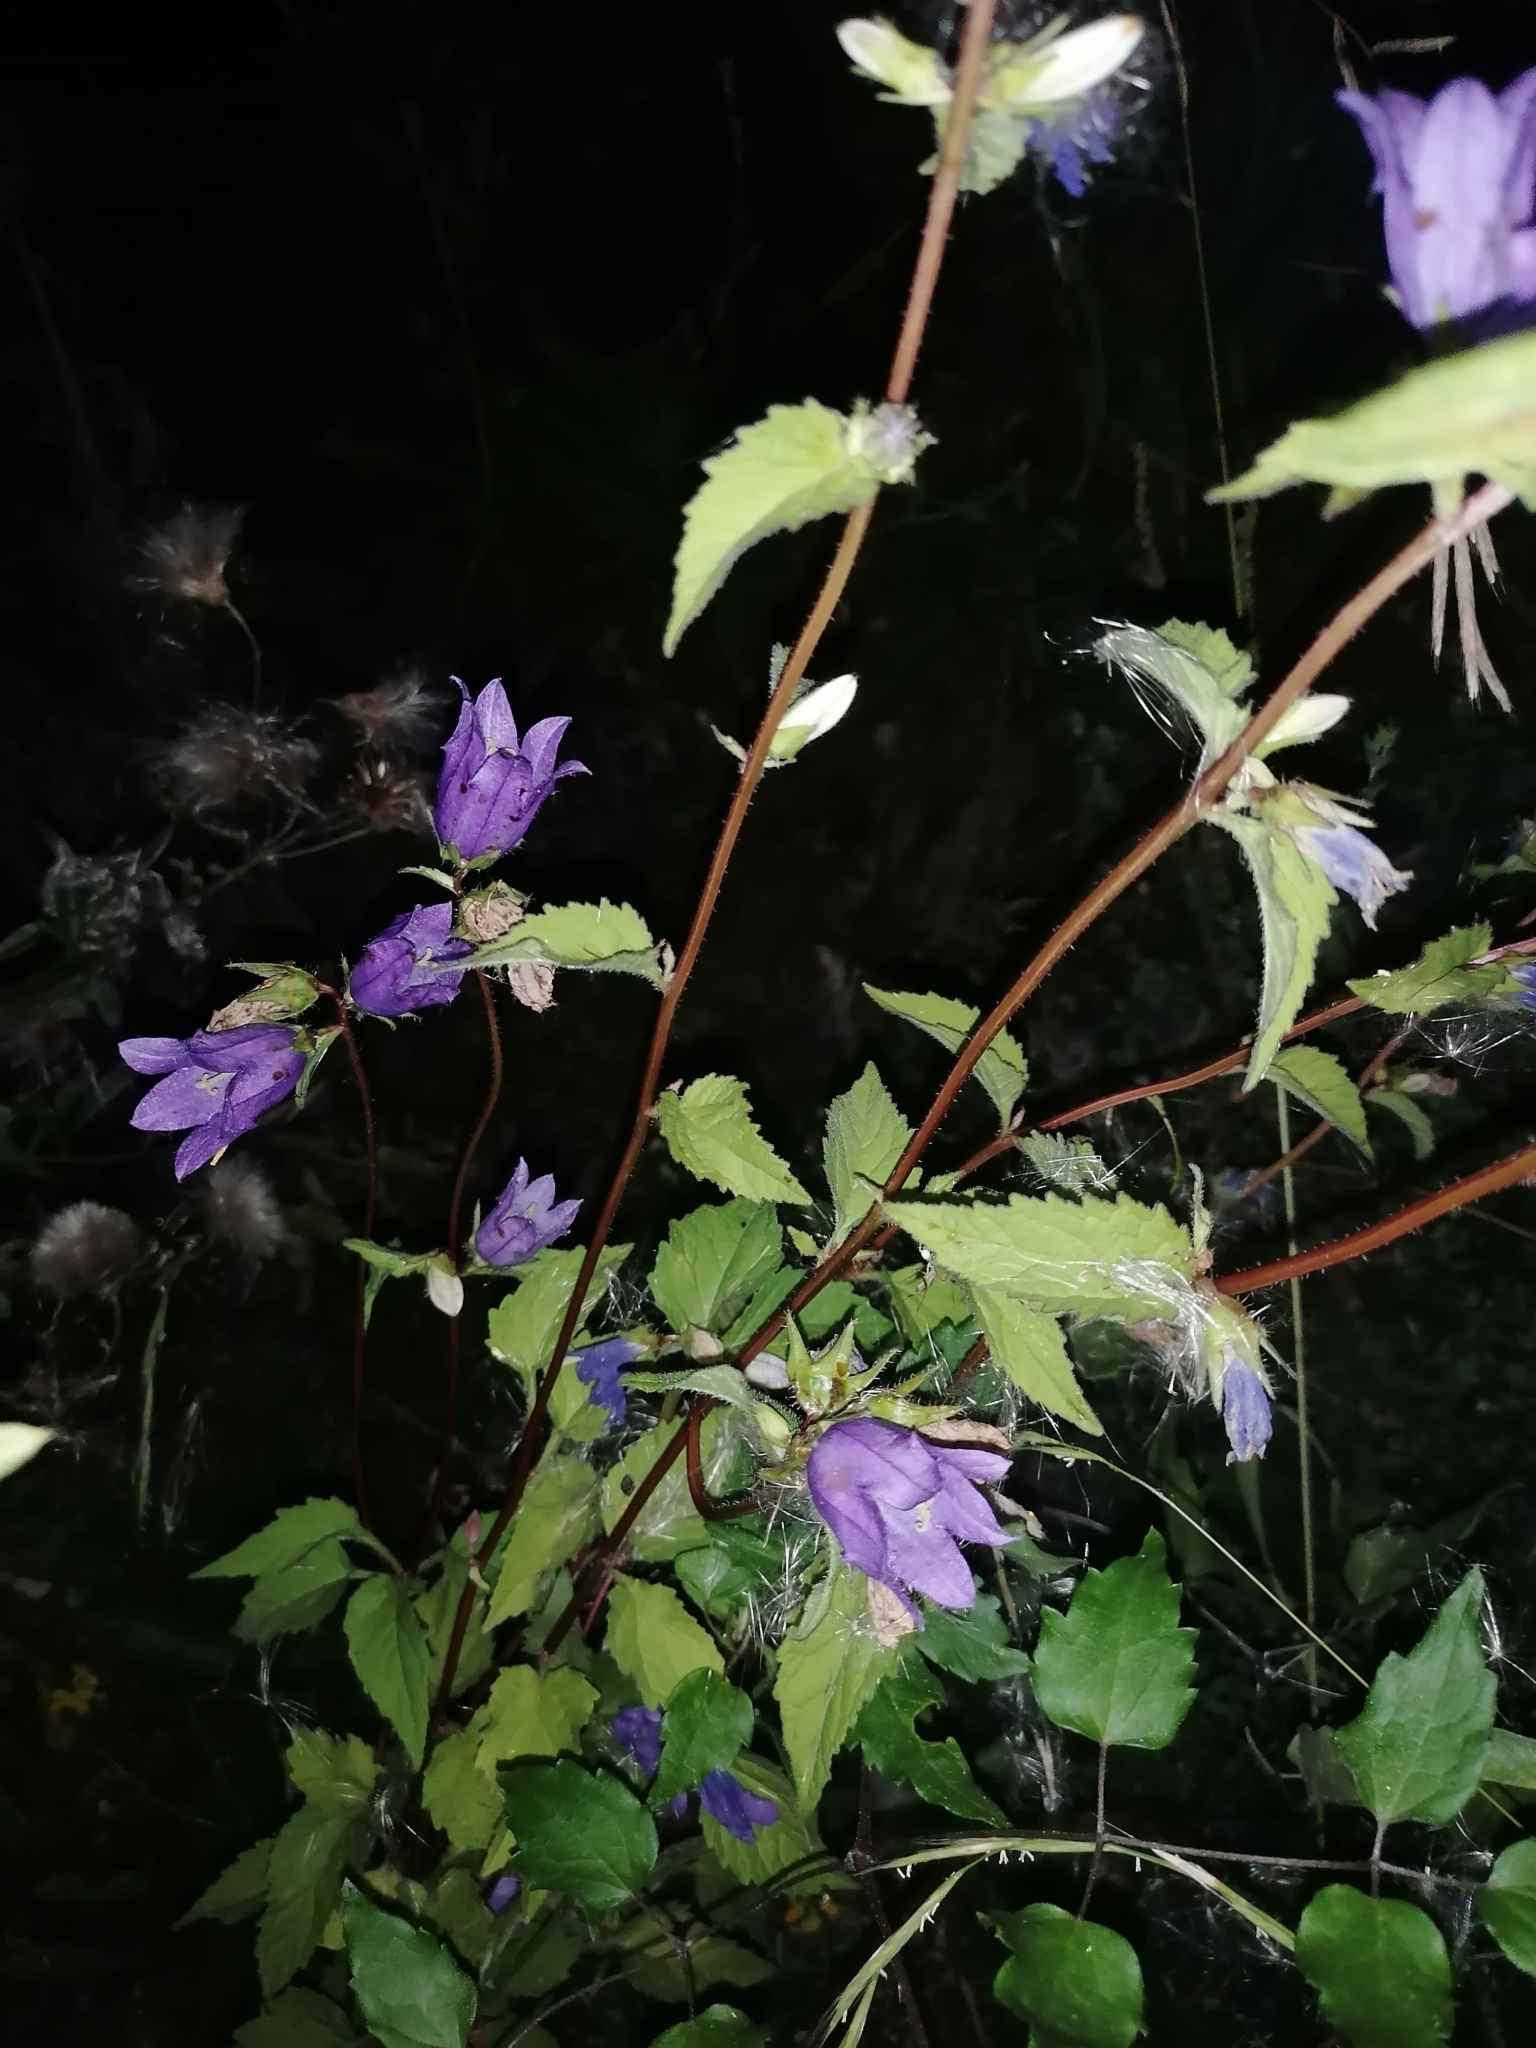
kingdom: Plantae
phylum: Tracheophyta
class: Magnoliopsida
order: Asterales
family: Campanulaceae
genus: Campanula
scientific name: Campanula trachelium
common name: Nettle-leaved bellflower
